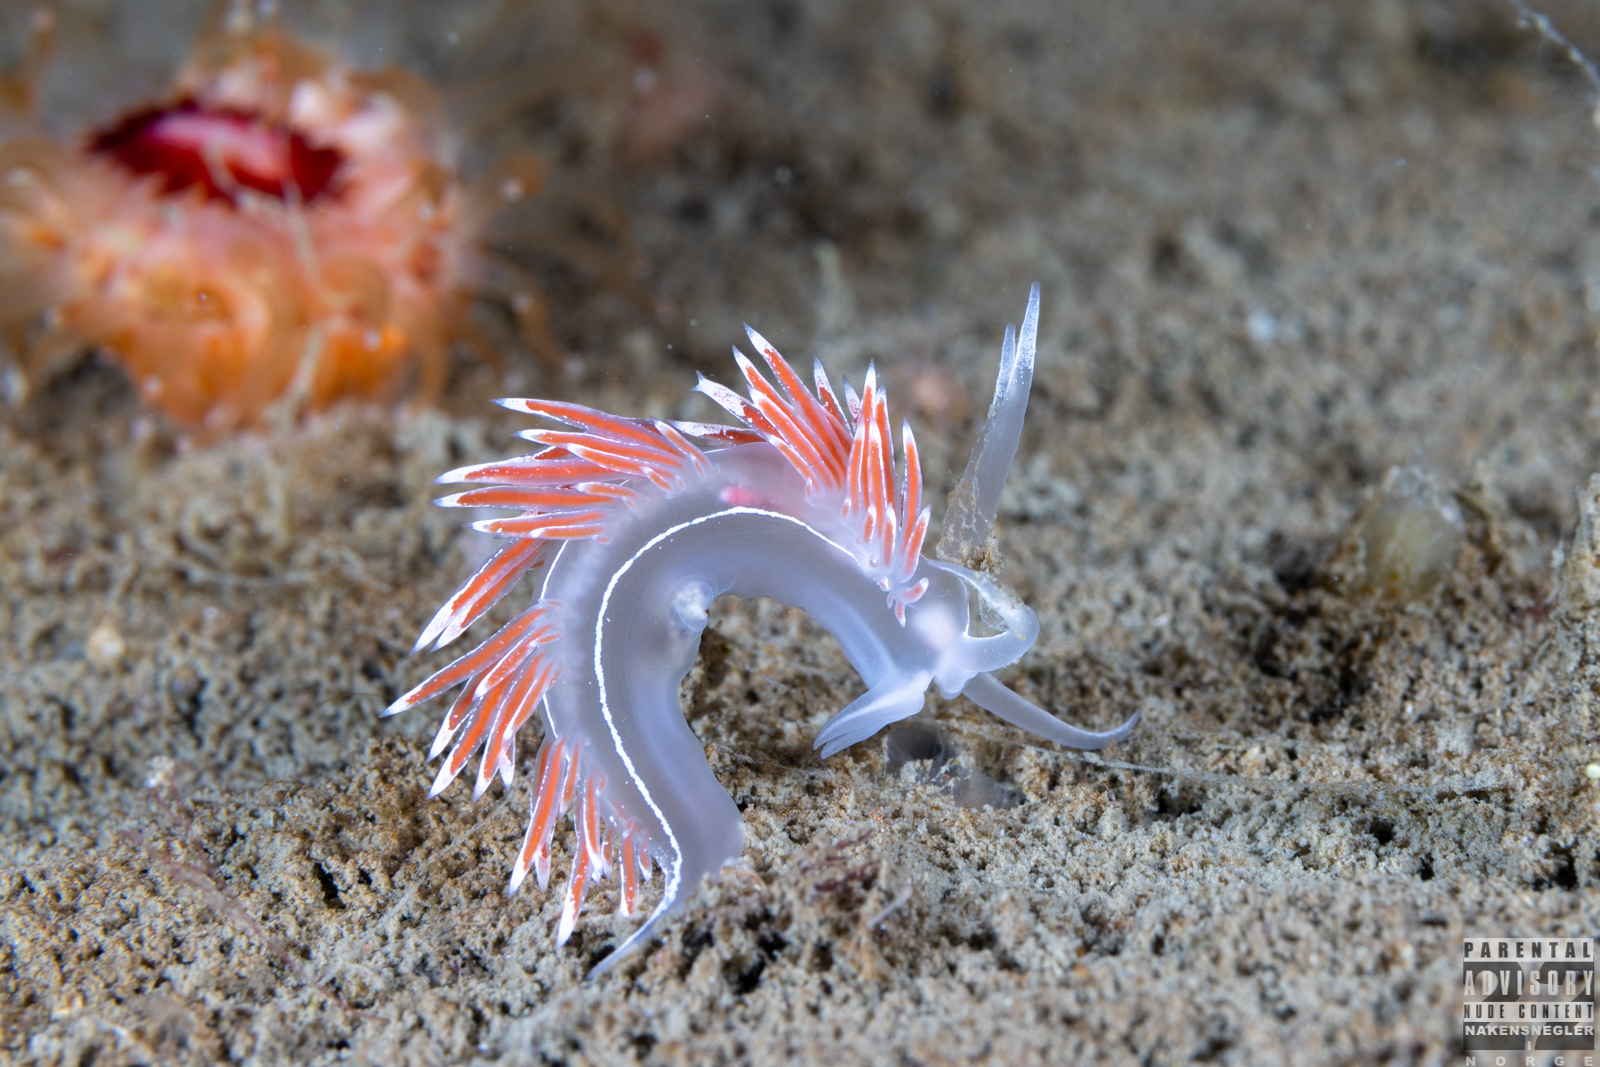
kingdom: Animalia
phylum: Mollusca
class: Gastropoda
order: Nudibranchia
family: Coryphellidae
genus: Coryphella
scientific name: Coryphella lineata
